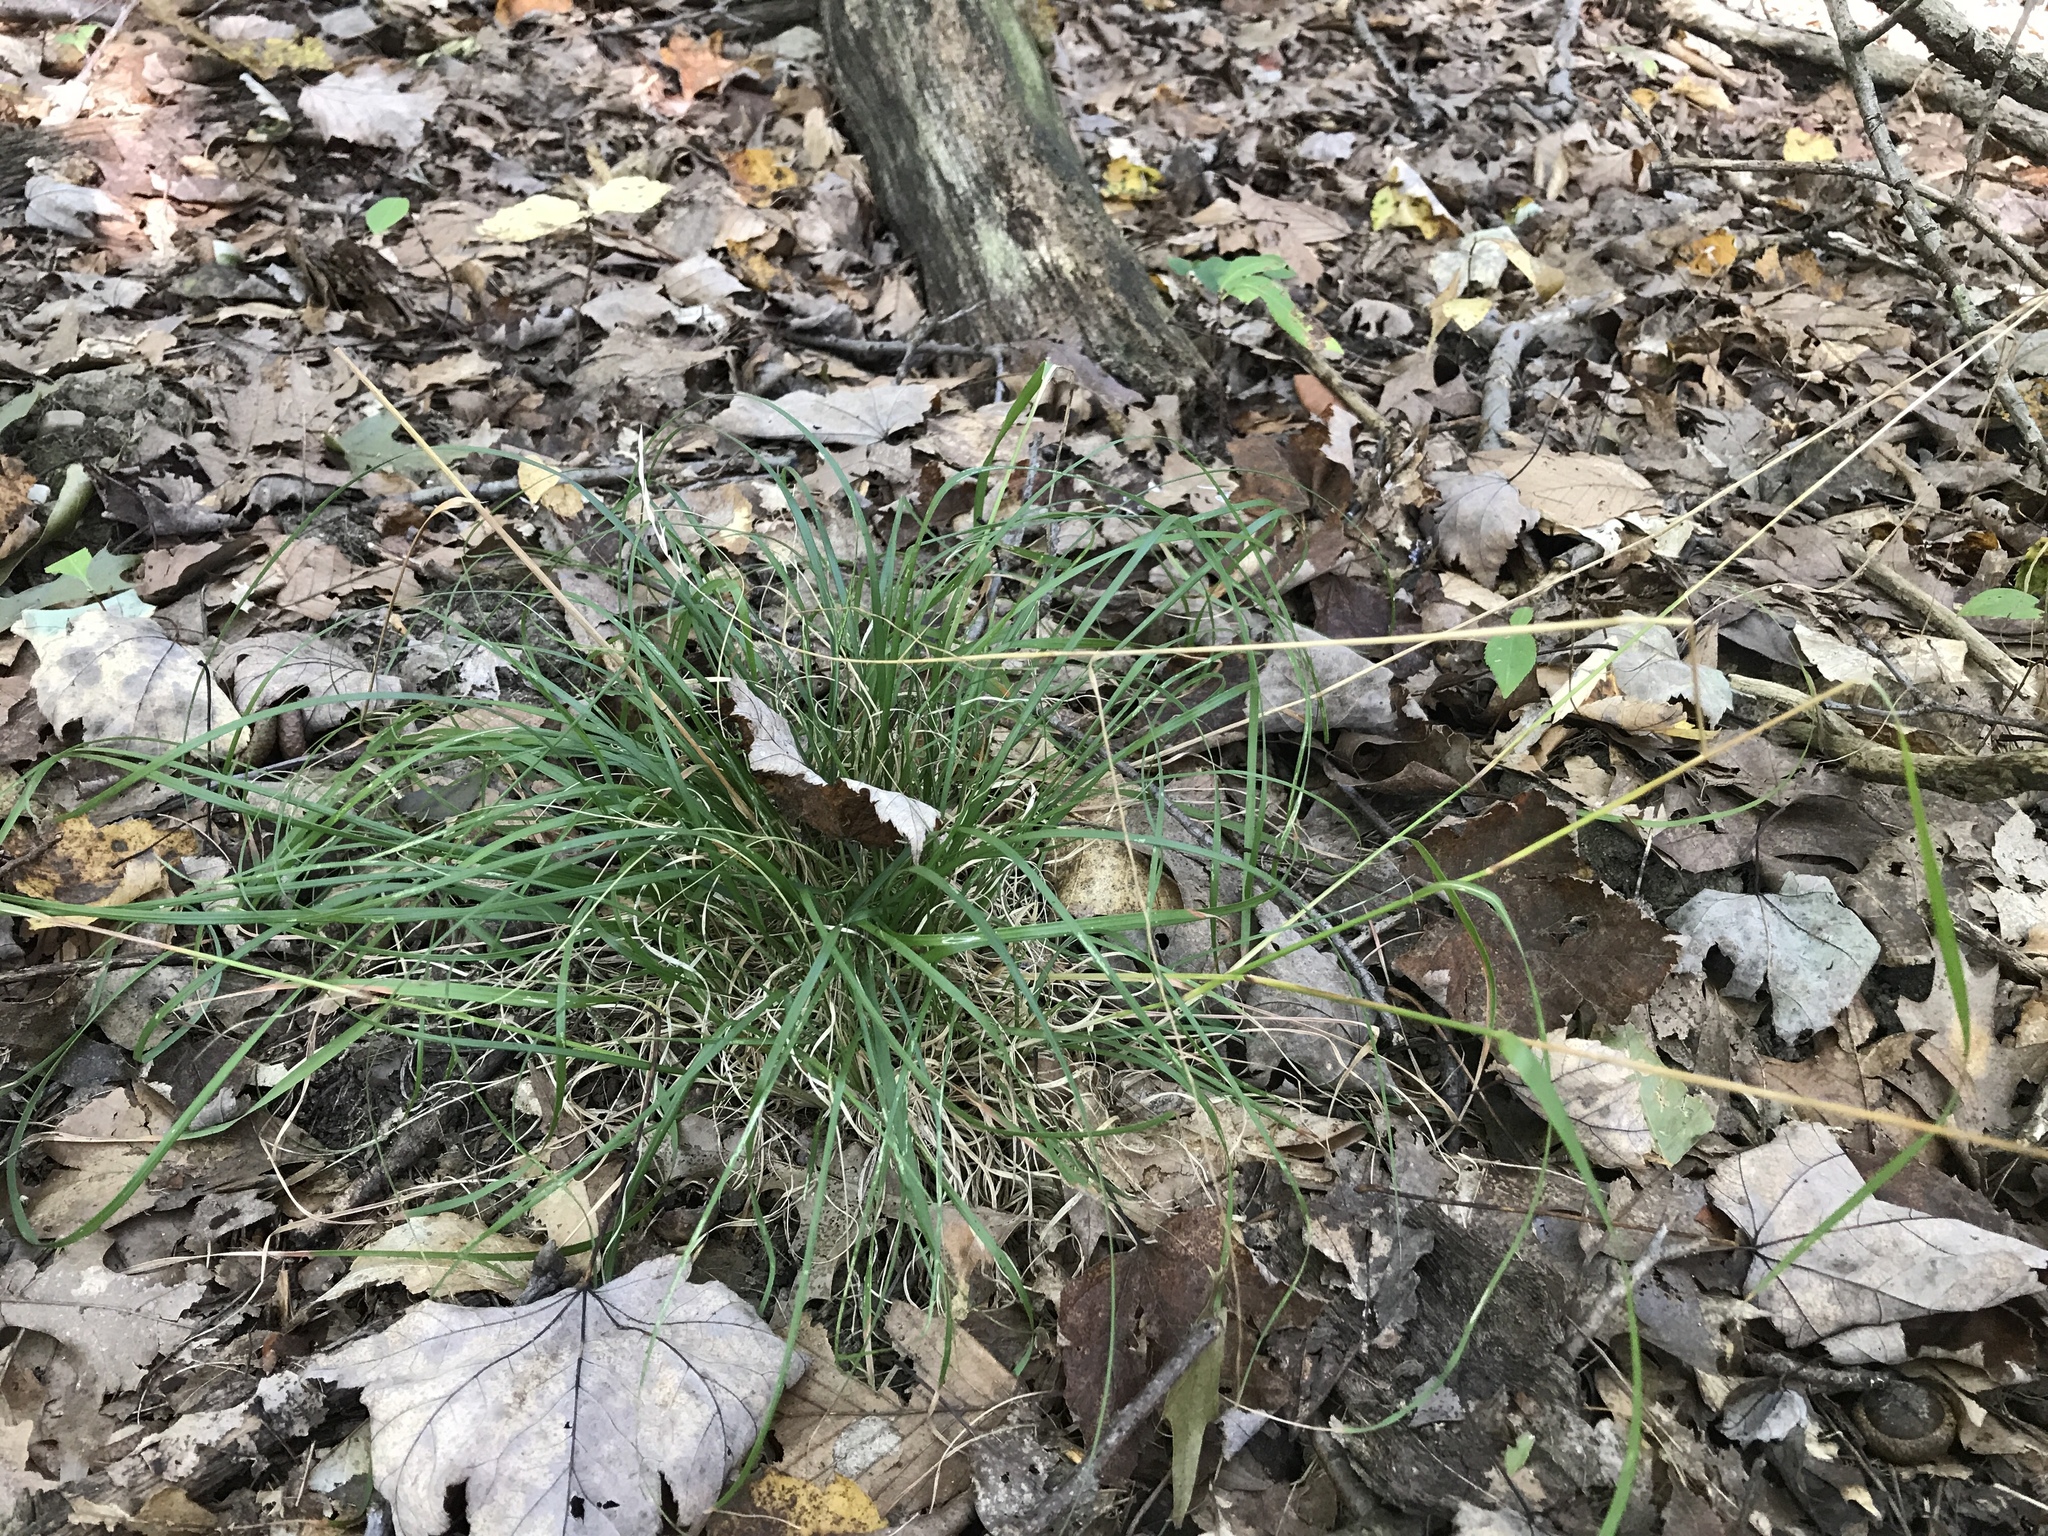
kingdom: Plantae
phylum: Tracheophyta
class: Liliopsida
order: Poales
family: Poaceae
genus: Danthonia
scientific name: Danthonia spicata
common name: Common wild oatgrass
